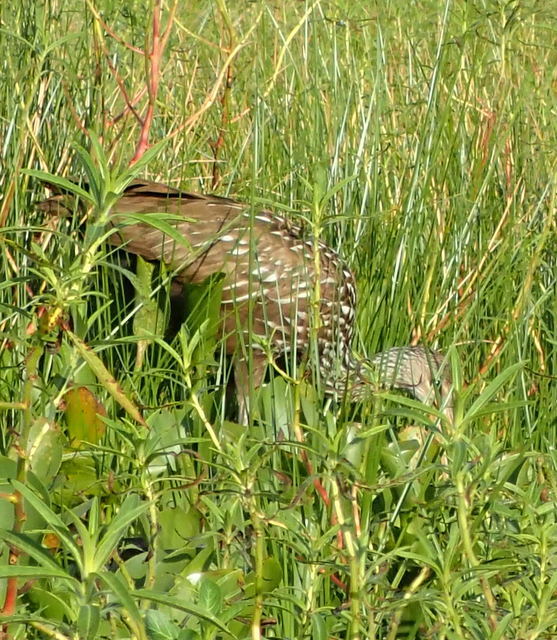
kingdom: Animalia
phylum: Chordata
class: Aves
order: Gruiformes
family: Aramidae
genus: Aramus
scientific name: Aramus guarauna
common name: Limpkin
